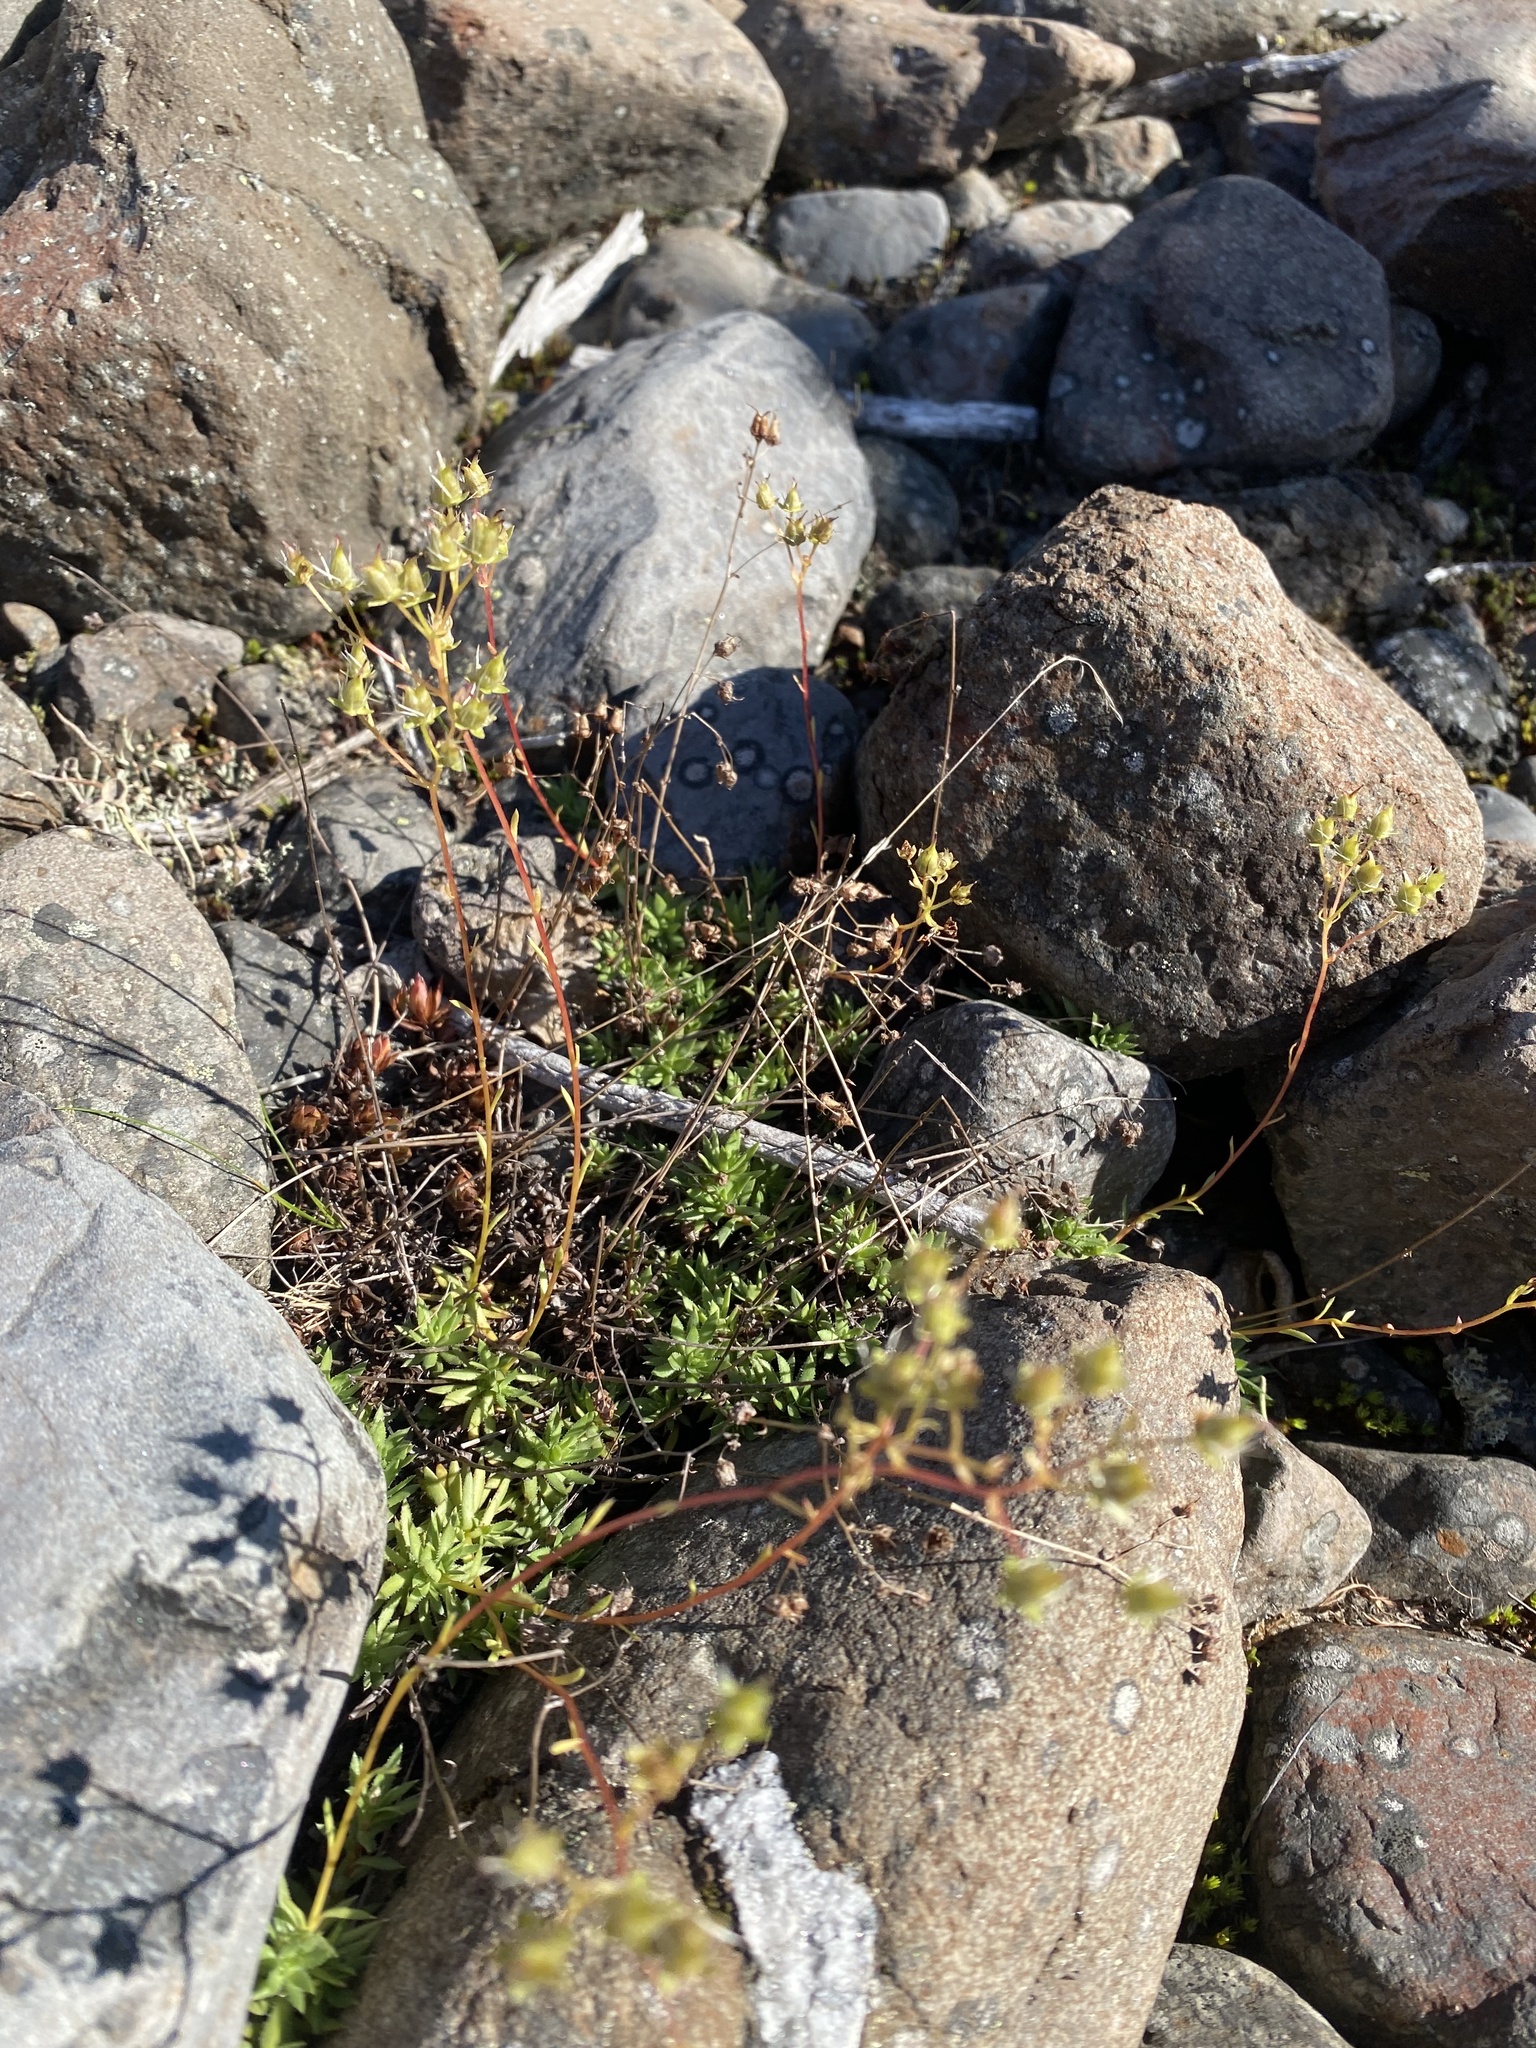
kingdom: Plantae
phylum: Tracheophyta
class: Magnoliopsida
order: Saxifragales
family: Saxifragaceae
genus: Saxifraga
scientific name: Saxifraga
